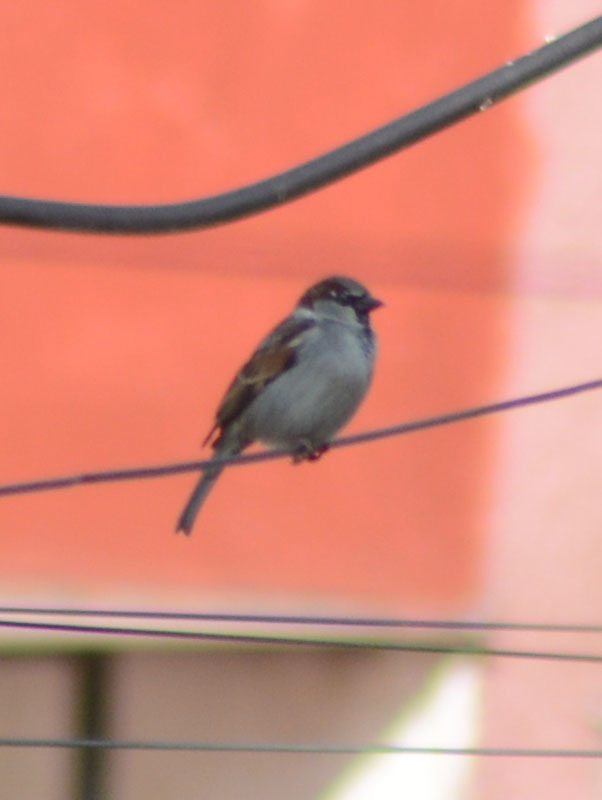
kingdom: Animalia
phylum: Chordata
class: Aves
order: Passeriformes
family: Passeridae
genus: Passer
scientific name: Passer domesticus
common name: House sparrow
